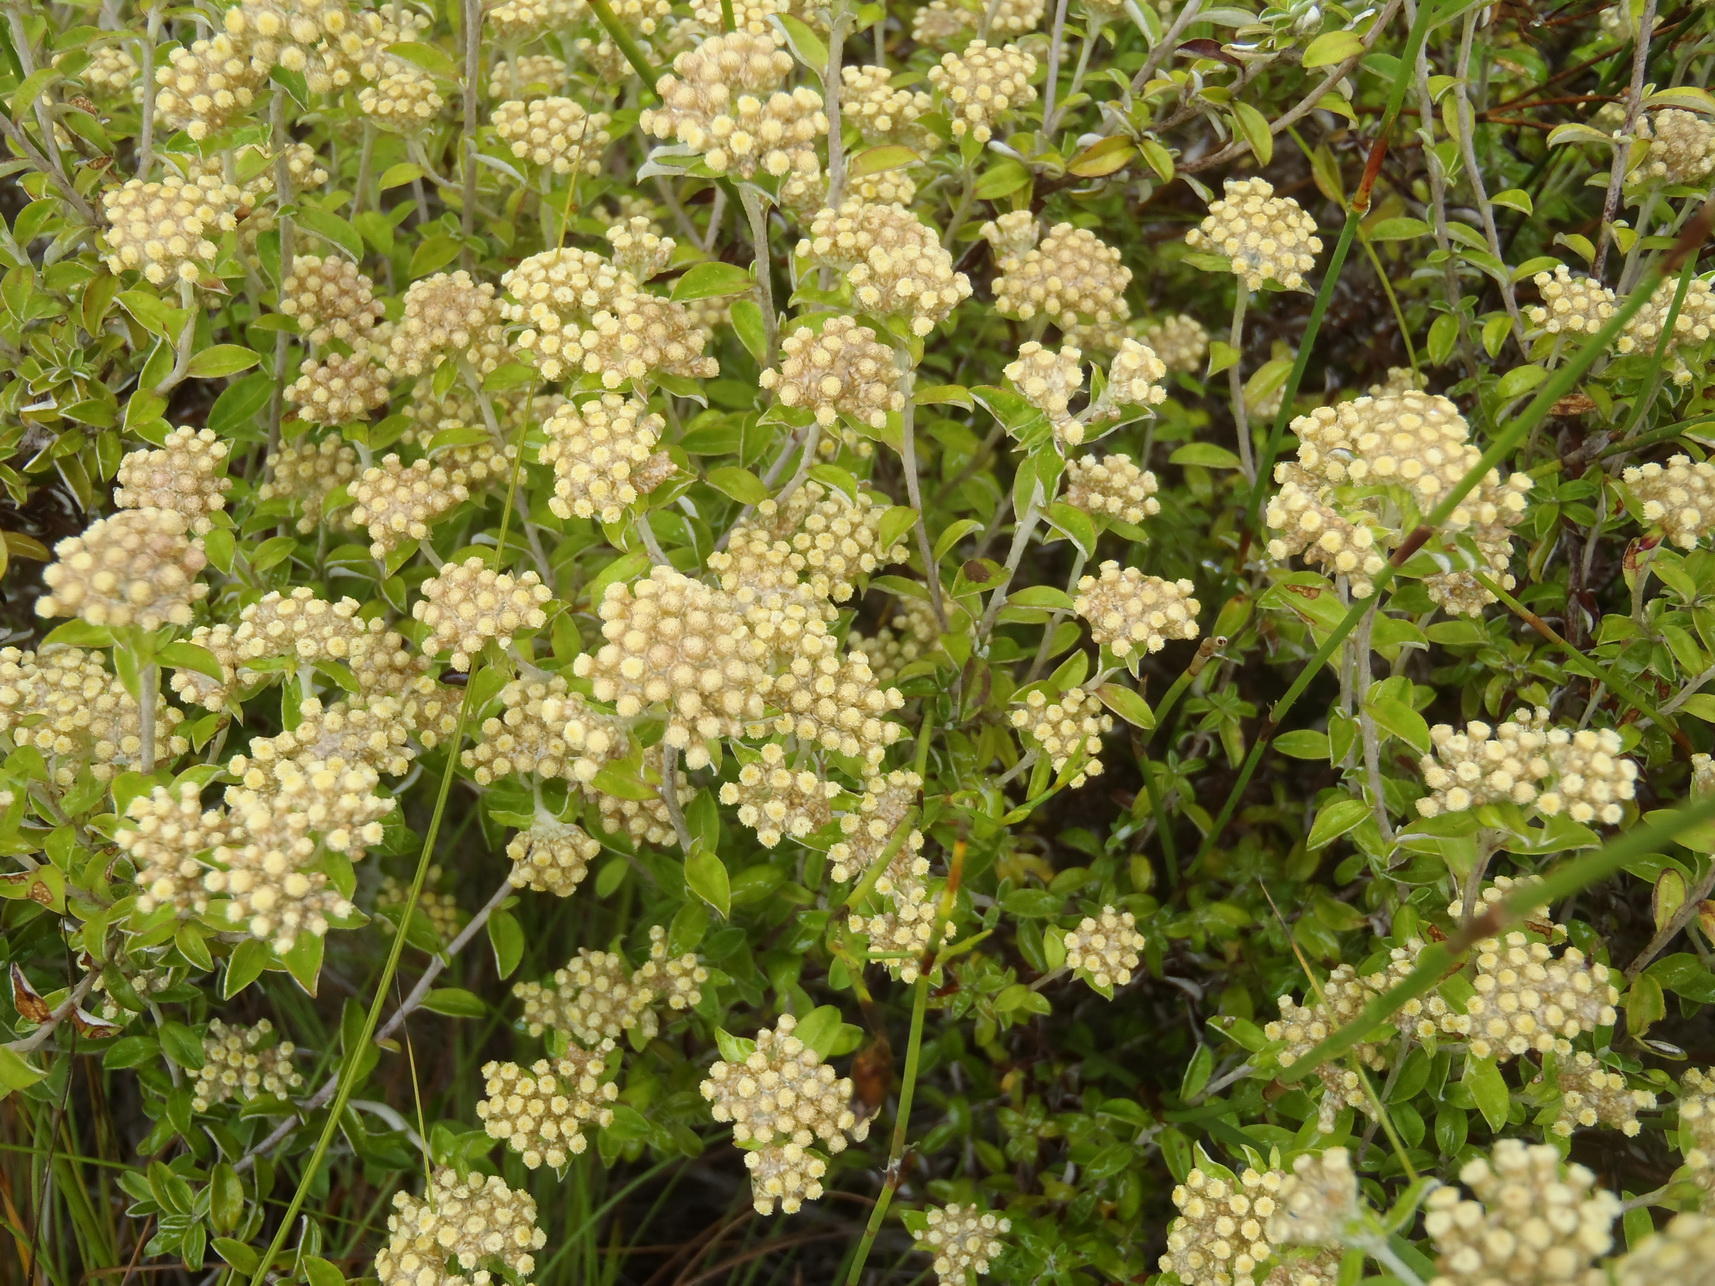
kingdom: Plantae
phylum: Tracheophyta
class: Magnoliopsida
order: Asterales
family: Asteraceae
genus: Plecostachys
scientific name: Plecostachys polifolia
